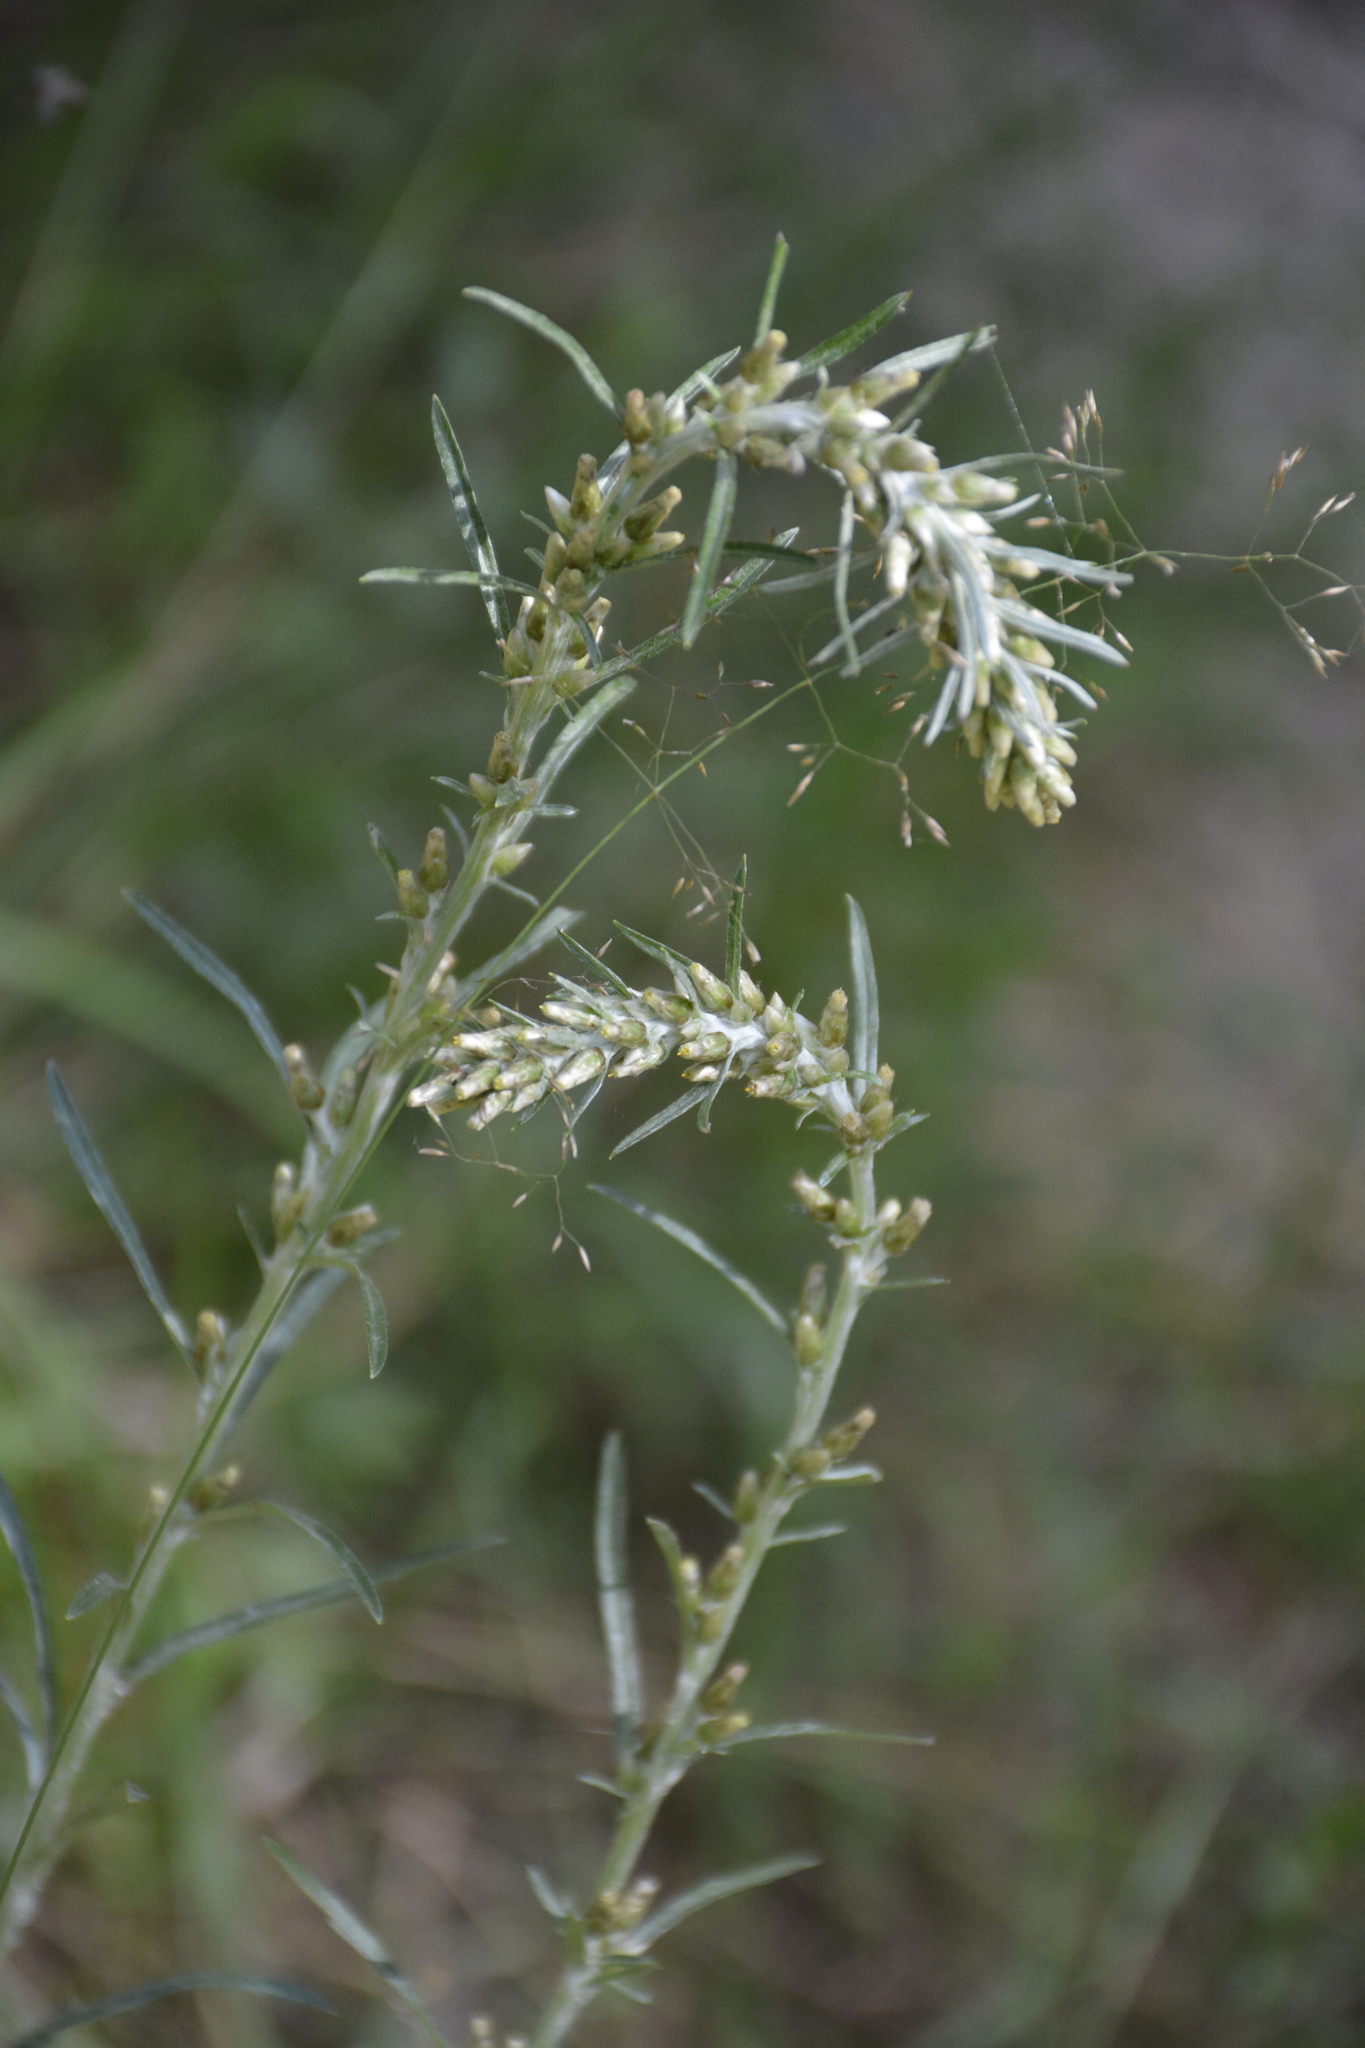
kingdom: Plantae
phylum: Tracheophyta
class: Magnoliopsida
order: Asterales
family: Asteraceae
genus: Omalotheca
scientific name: Omalotheca sylvatica
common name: Heath cudweed
